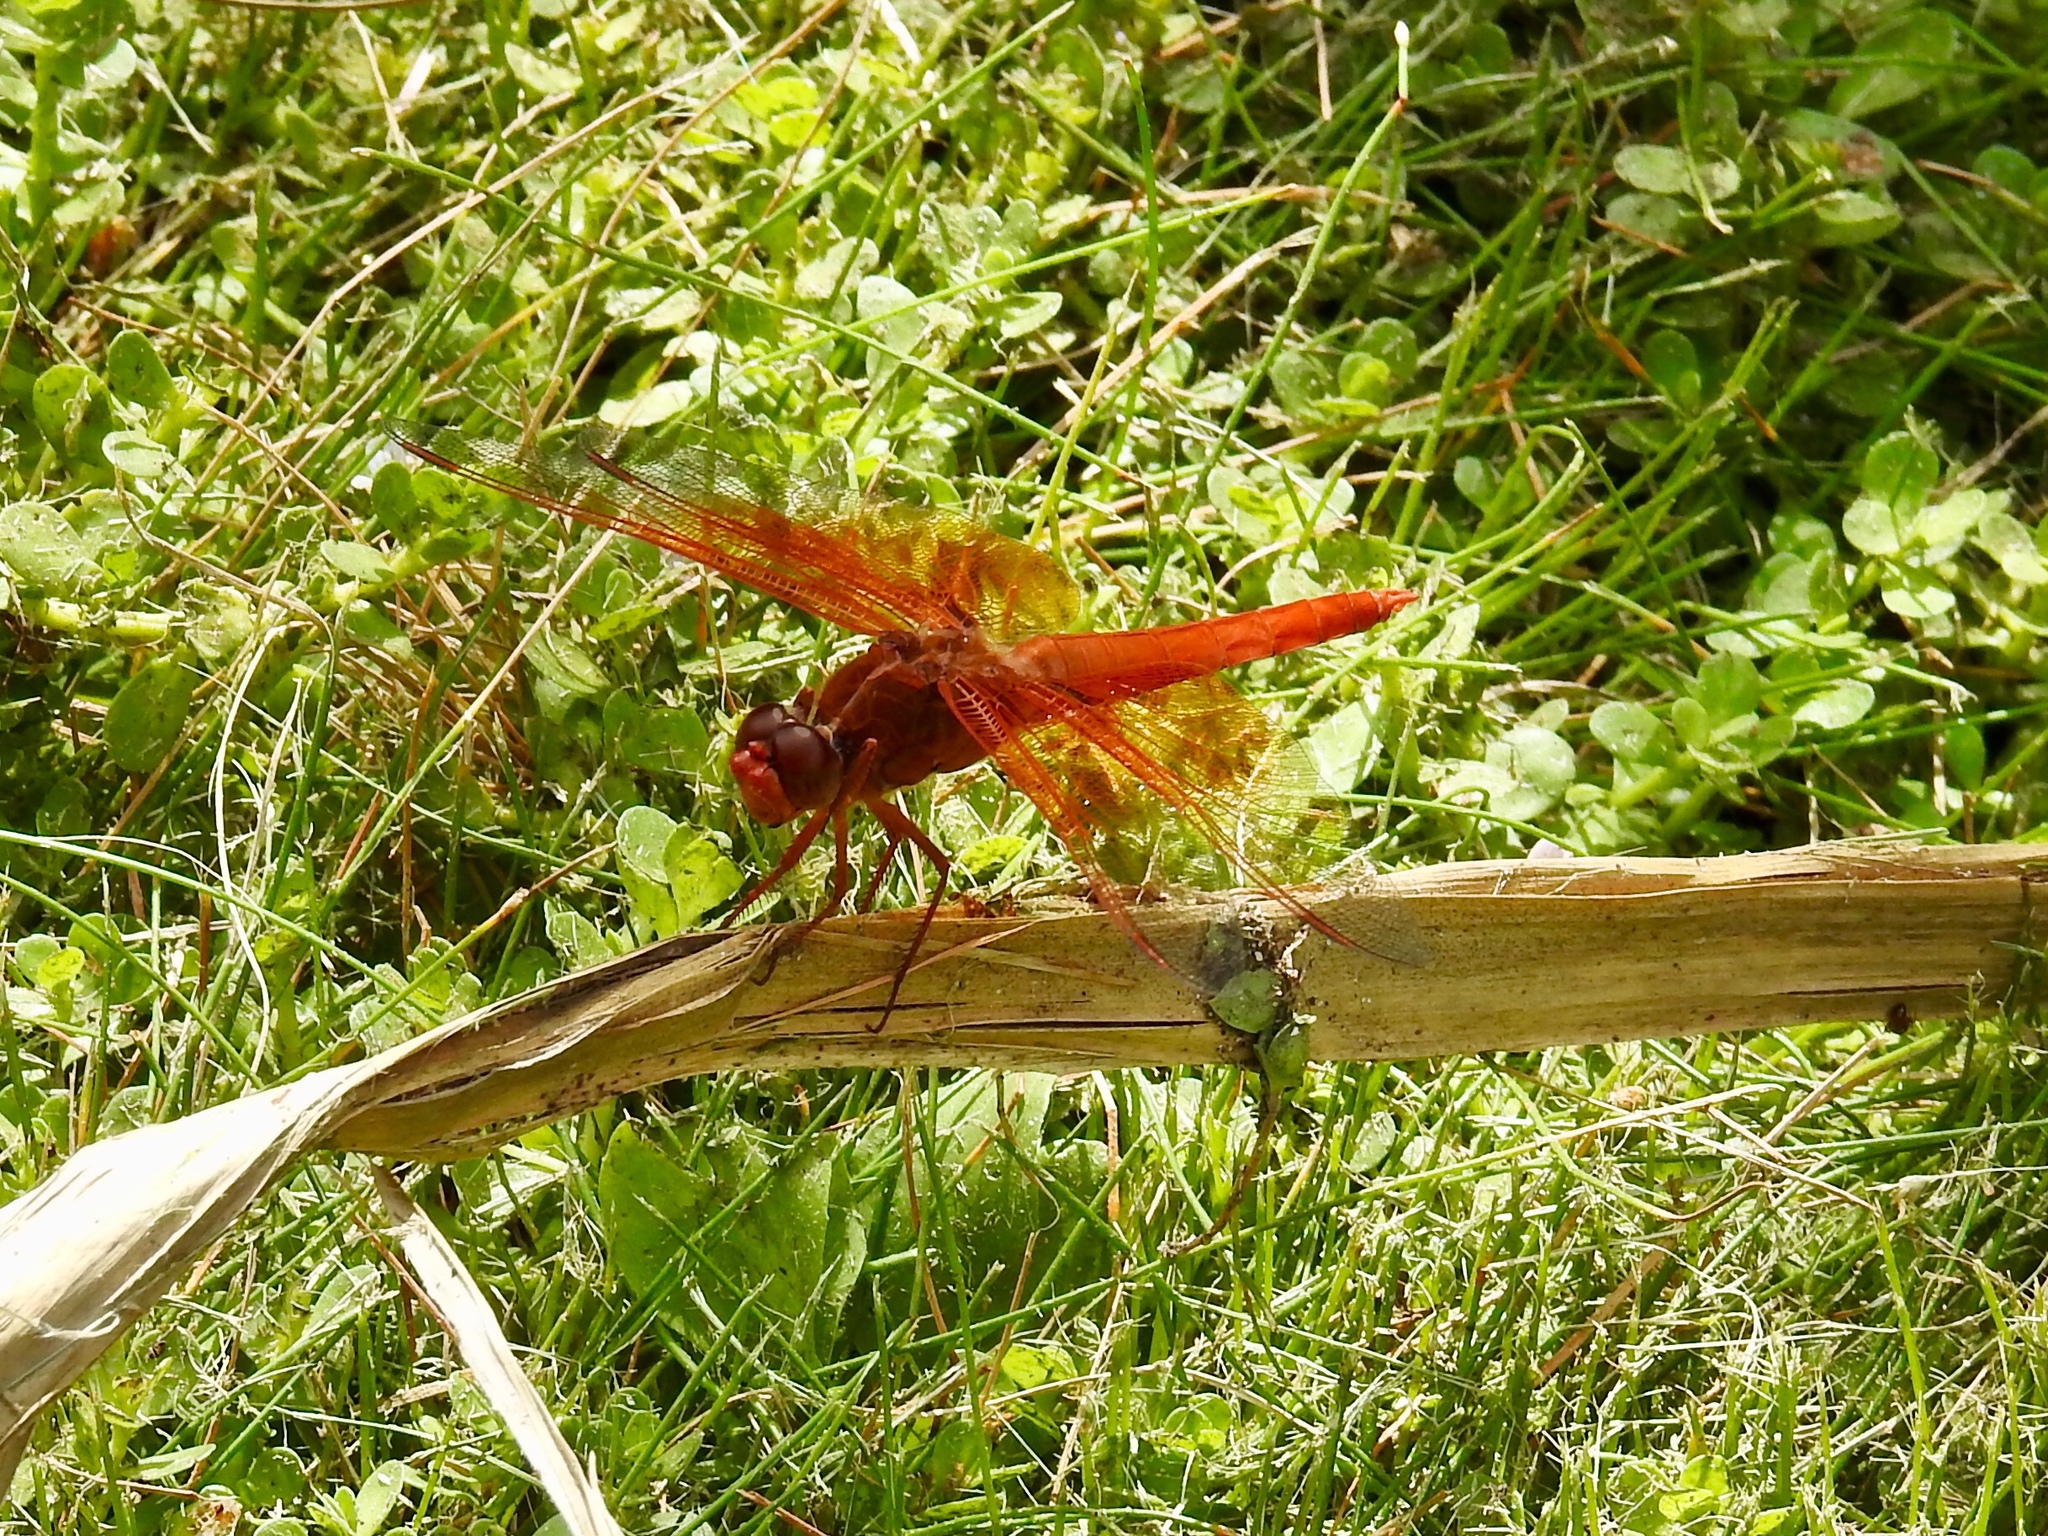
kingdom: Animalia
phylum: Arthropoda
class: Insecta
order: Odonata
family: Libellulidae
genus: Libellula
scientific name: Libellula saturata
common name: Flame skimmer
